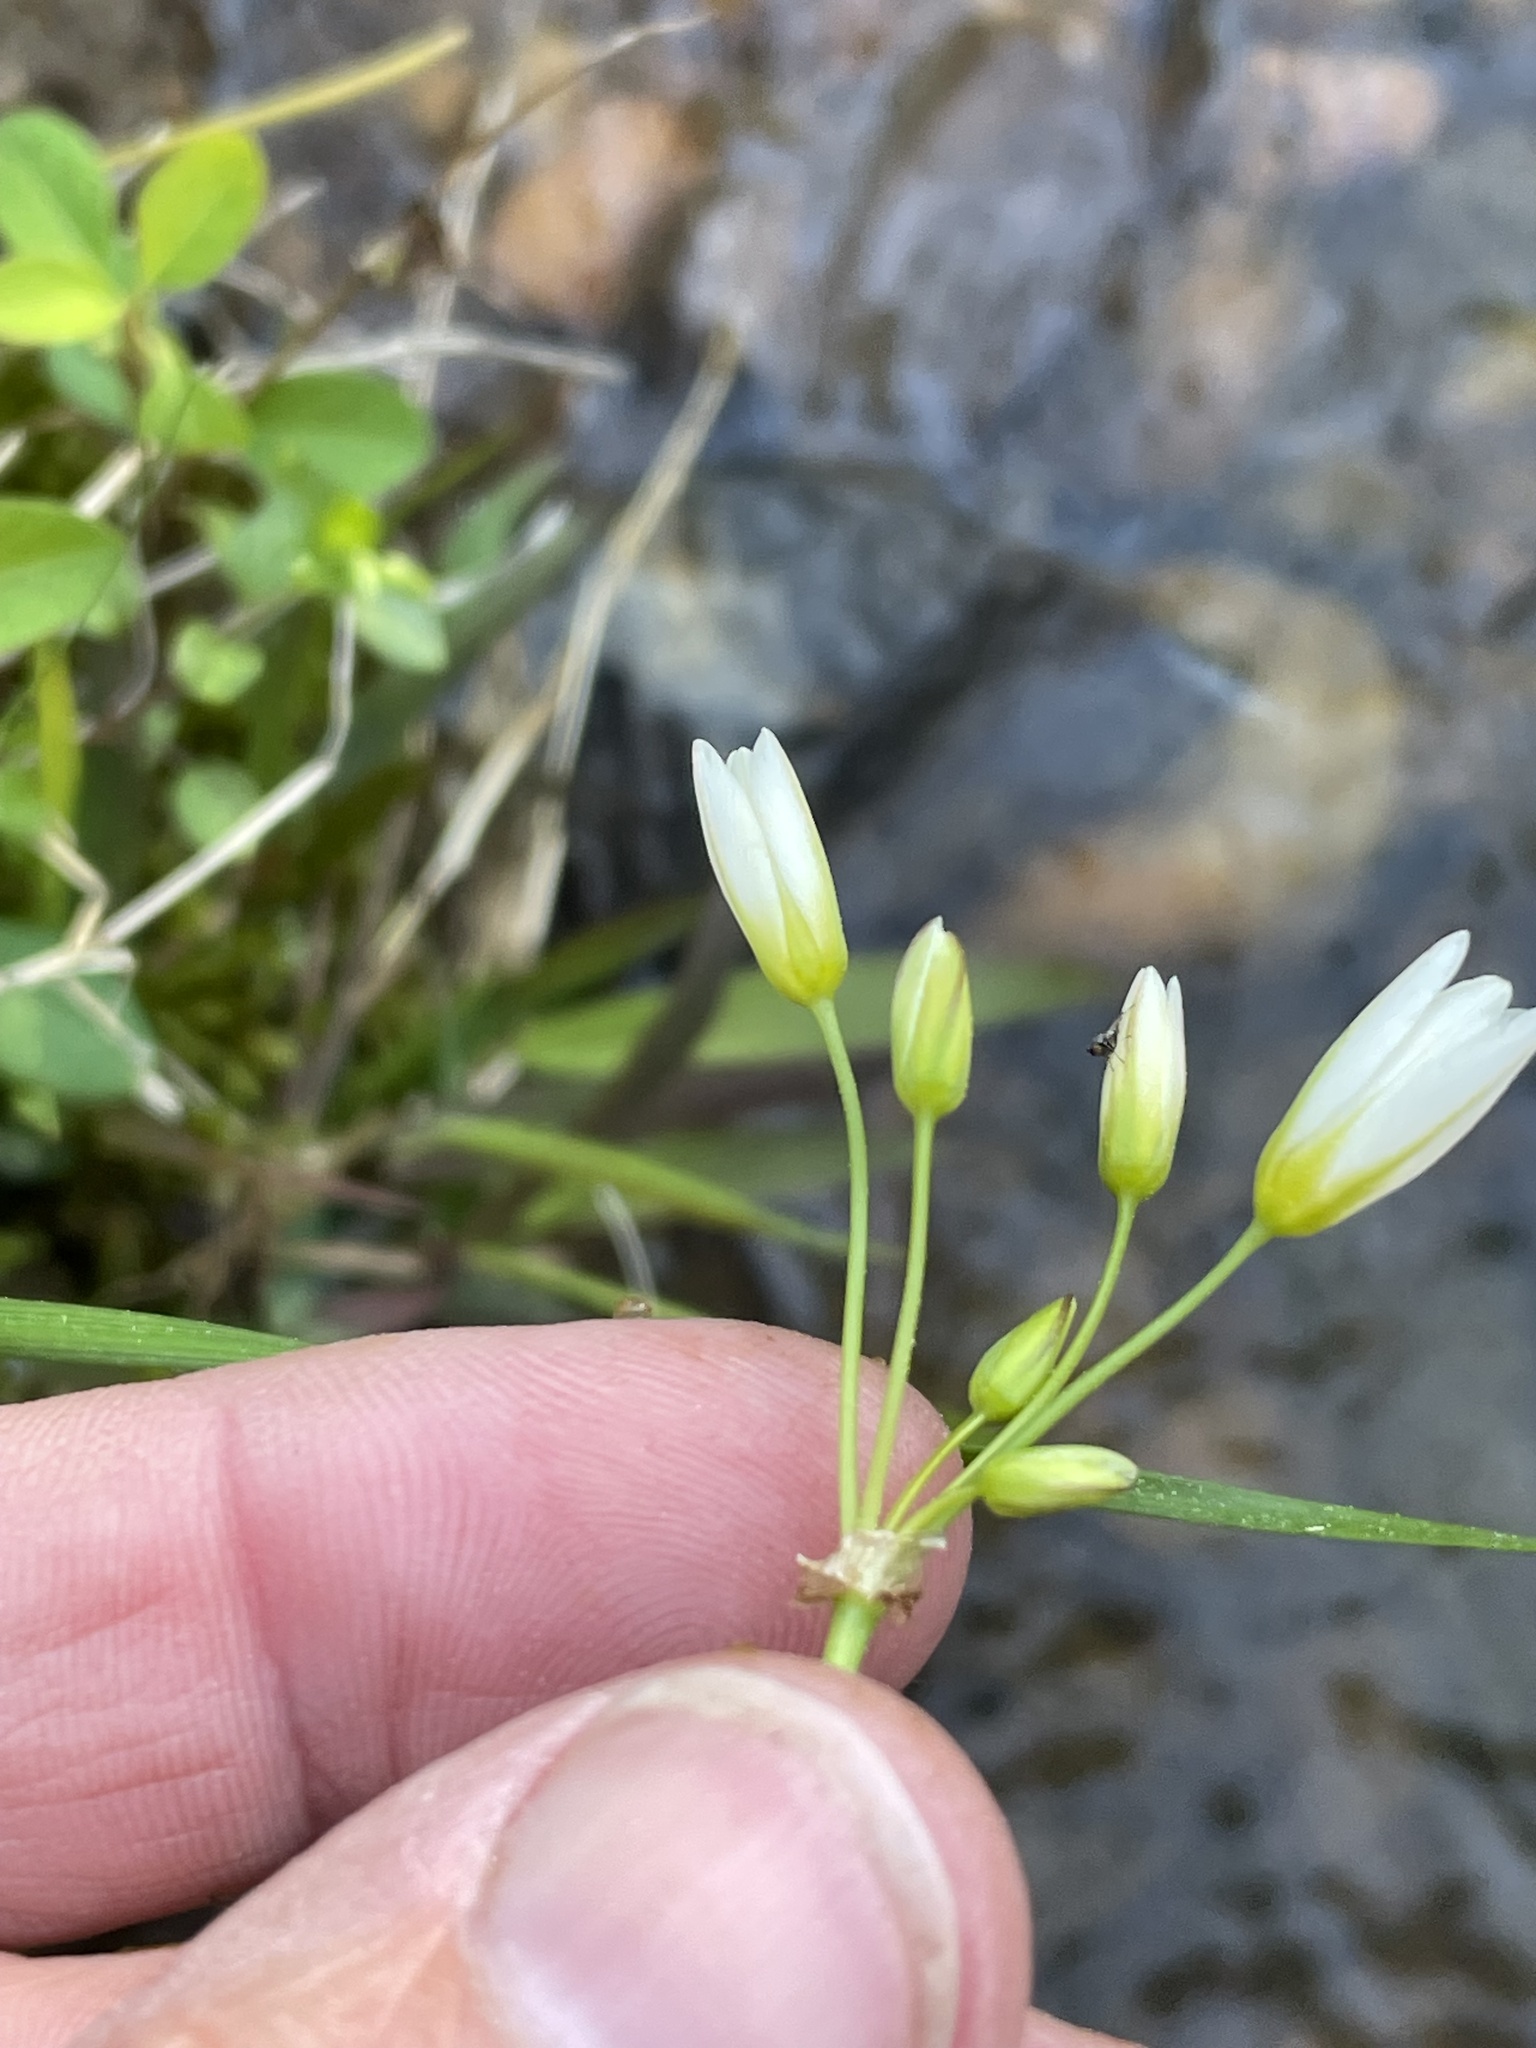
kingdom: Plantae
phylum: Tracheophyta
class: Liliopsida
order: Asparagales
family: Amaryllidaceae
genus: Nothoscordum
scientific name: Nothoscordum bivalve
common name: Crow-poison
